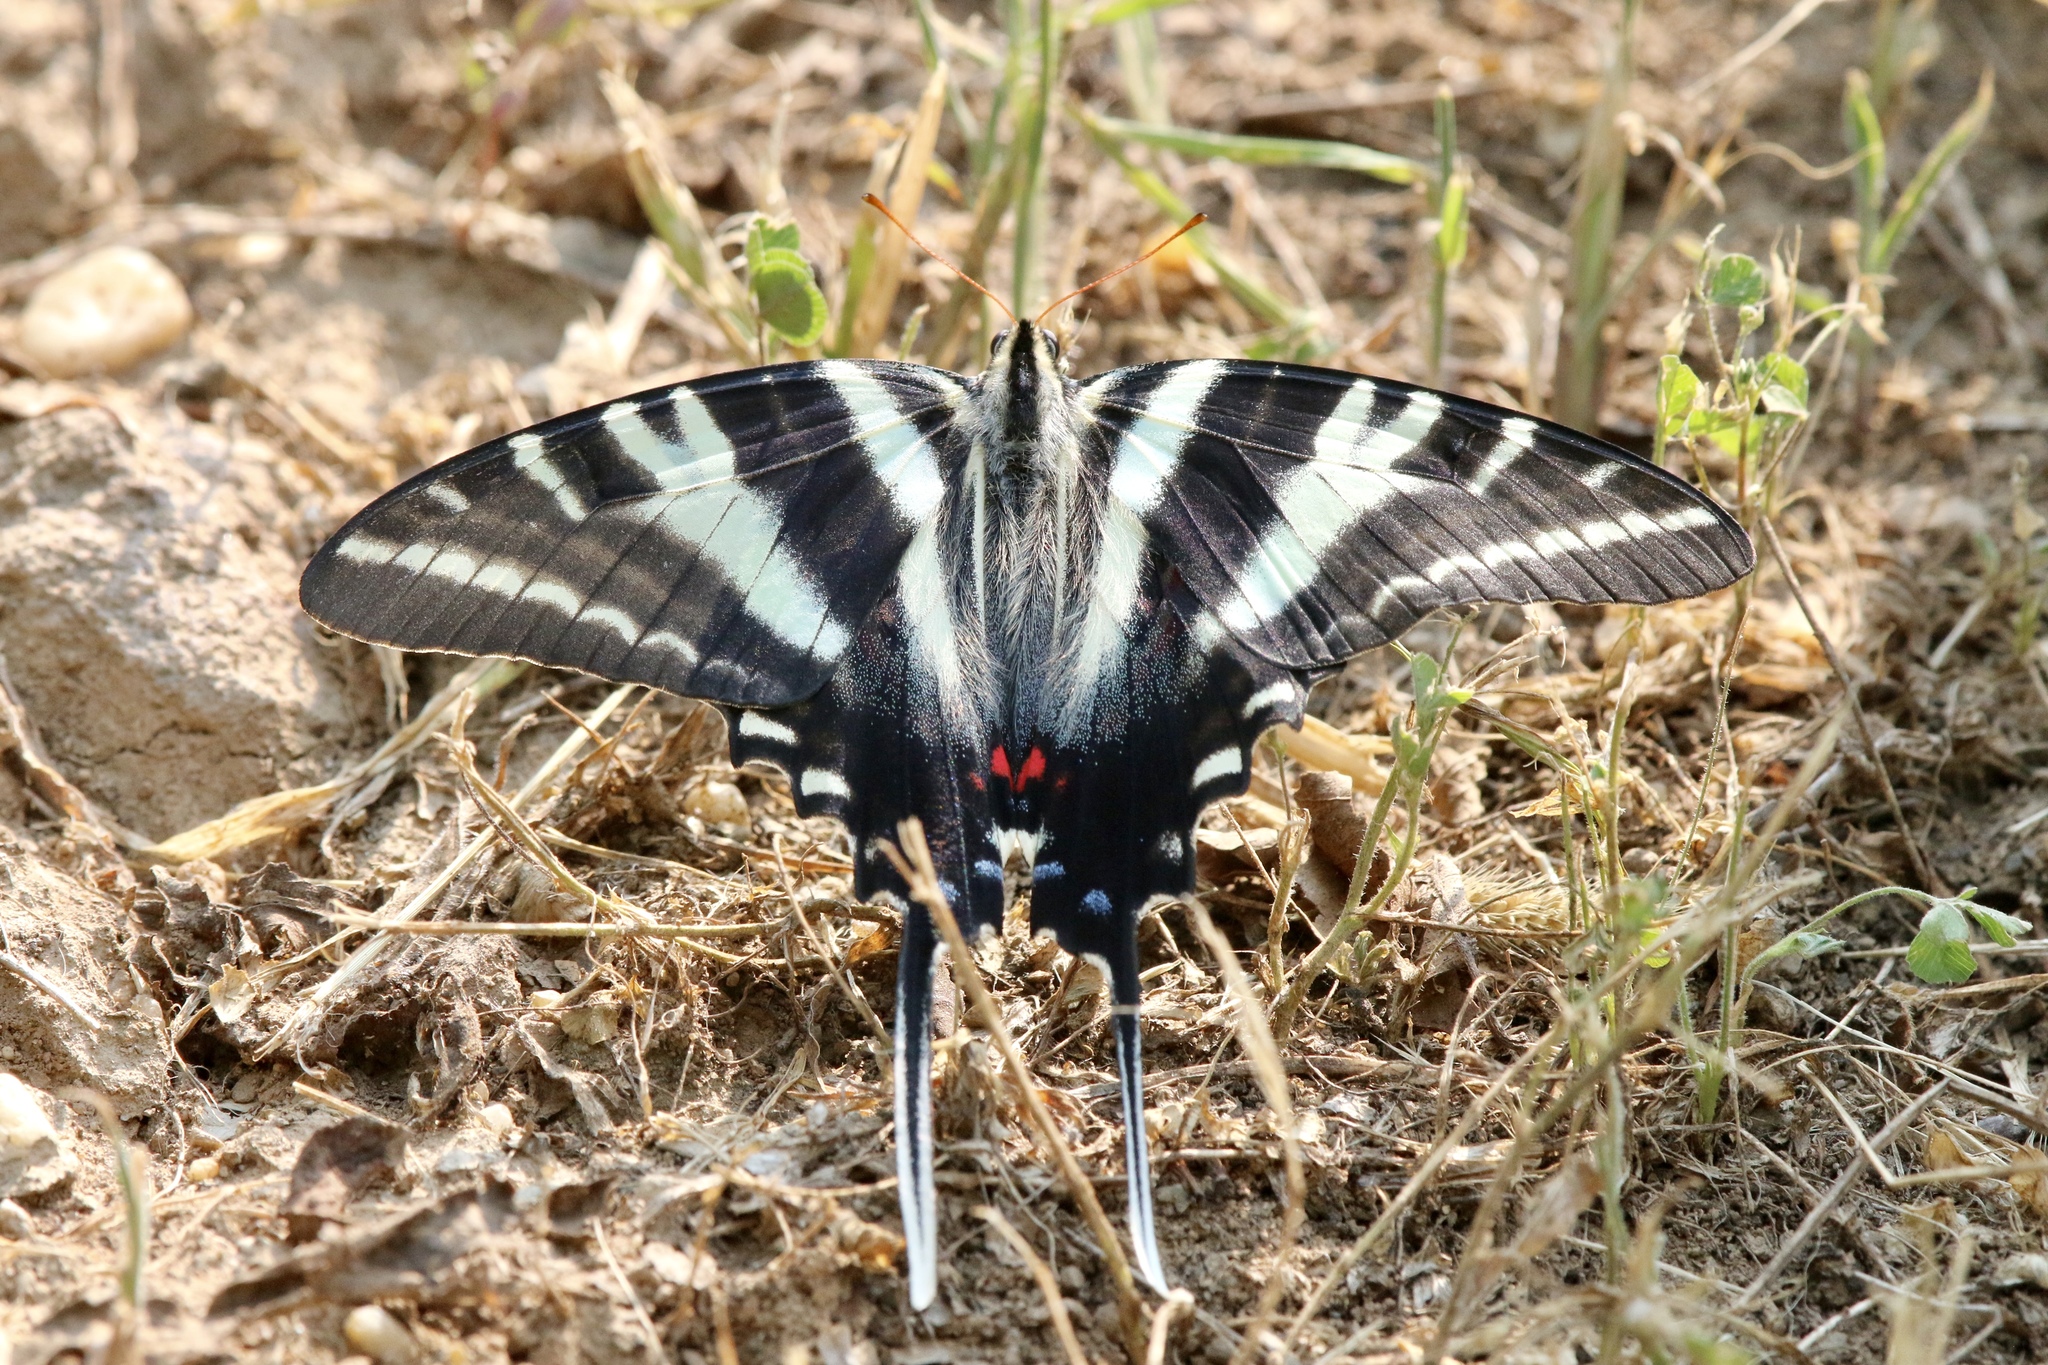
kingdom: Animalia
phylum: Arthropoda
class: Insecta
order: Lepidoptera
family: Papilionidae
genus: Protographium
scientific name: Protographium marcellus
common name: Zebra swallowtail
